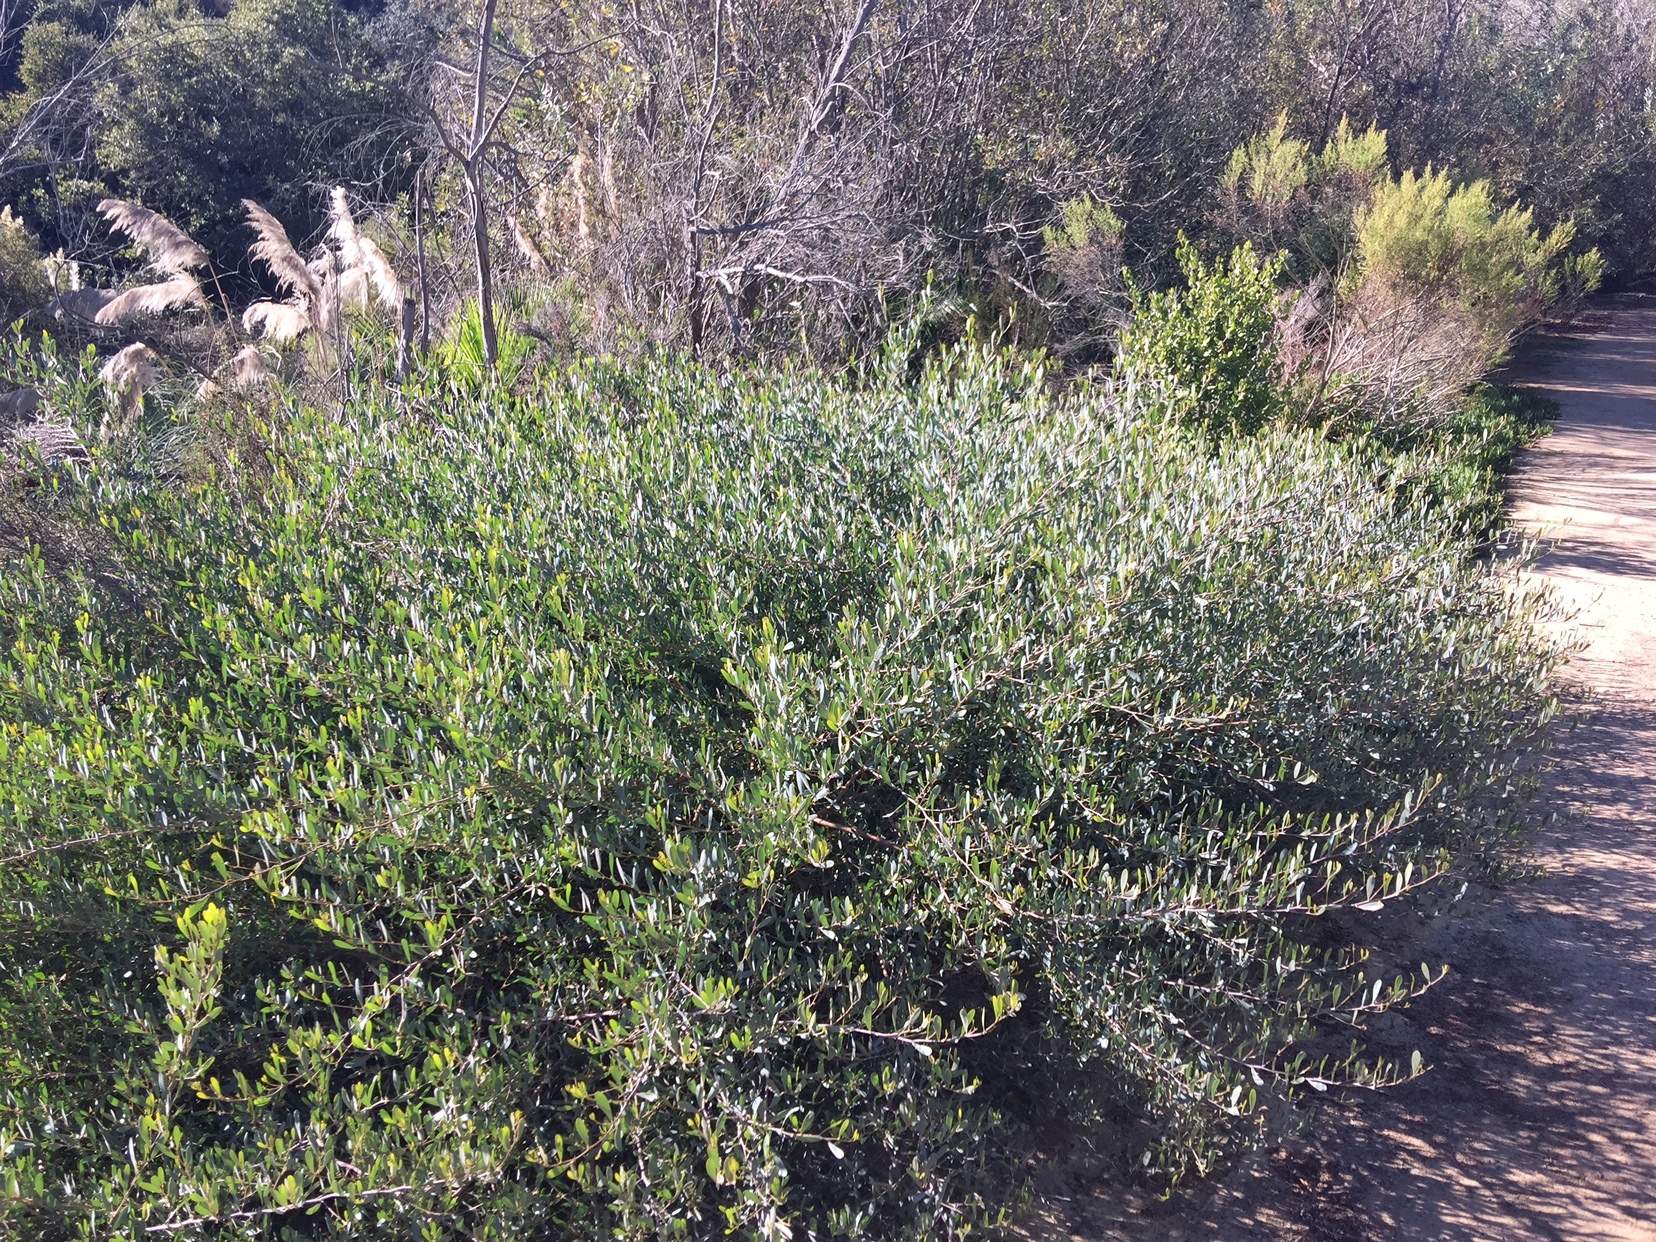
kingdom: Plantae
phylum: Tracheophyta
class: Magnoliopsida
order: Fabales
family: Fabaceae
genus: Acacia
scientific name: Acacia redolens
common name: Bank catclaw
